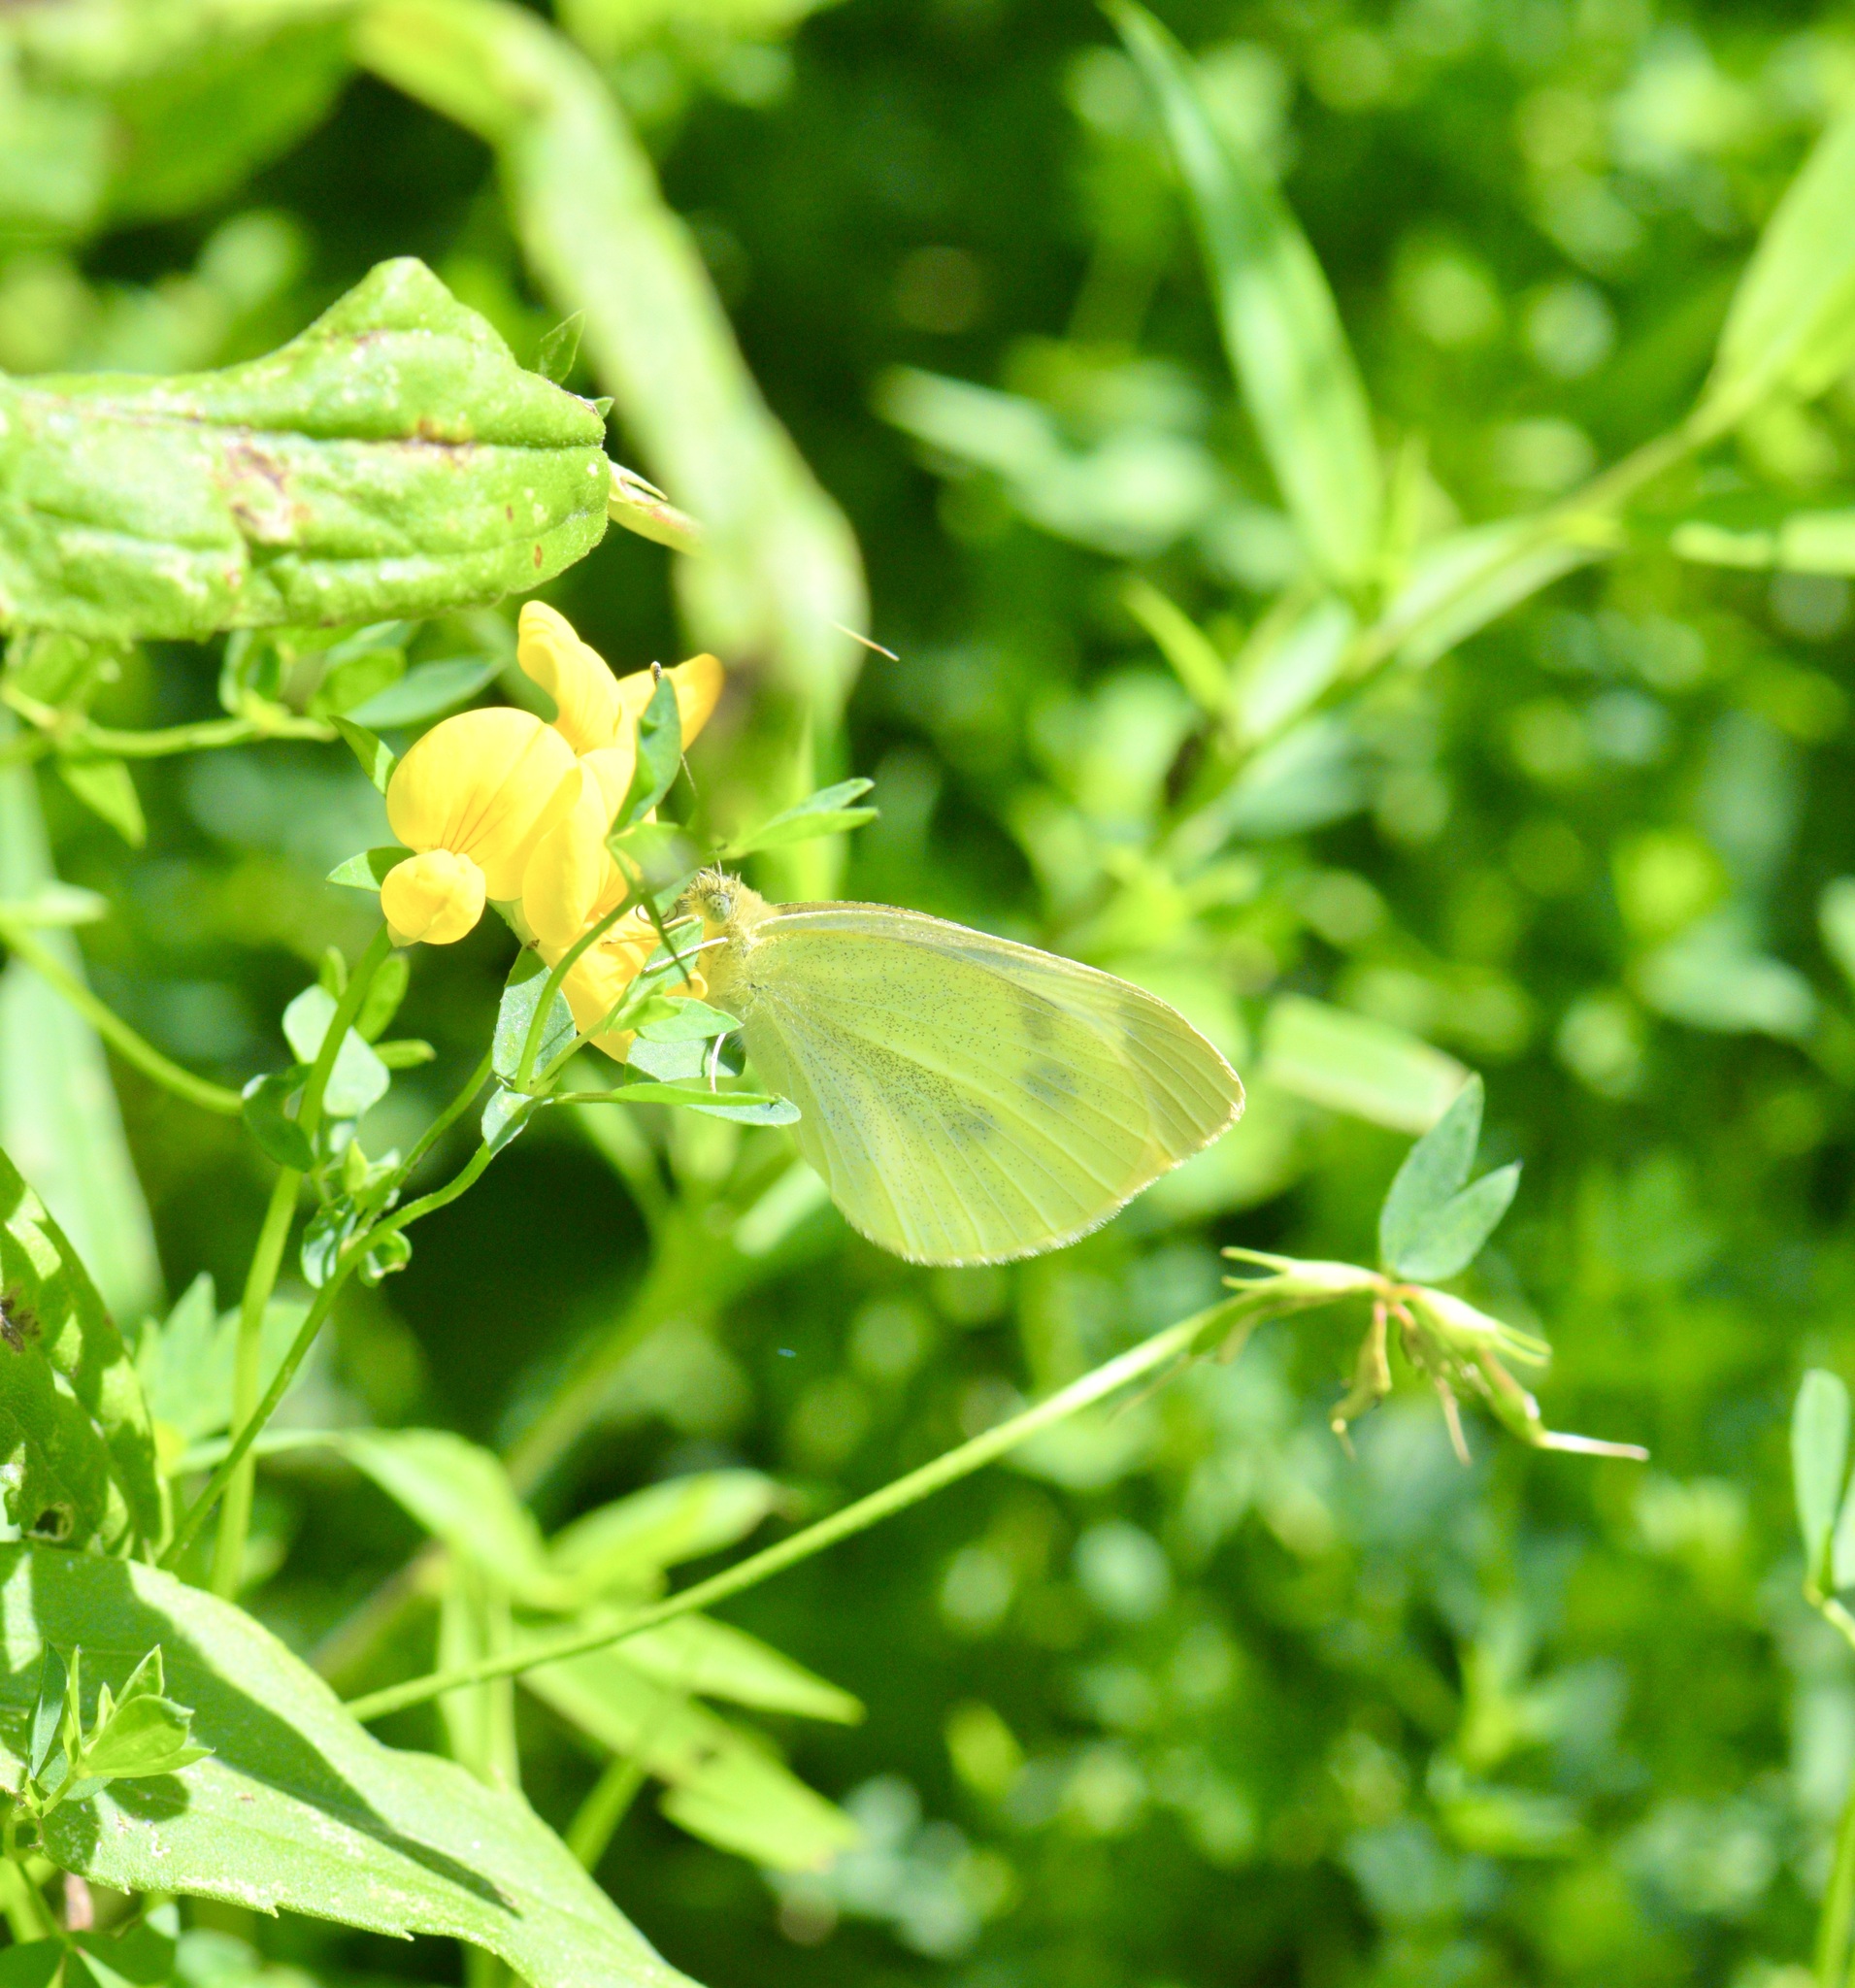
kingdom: Animalia
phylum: Arthropoda
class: Insecta
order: Lepidoptera
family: Pieridae
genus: Pieris
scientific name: Pieris rapae
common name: Small white
